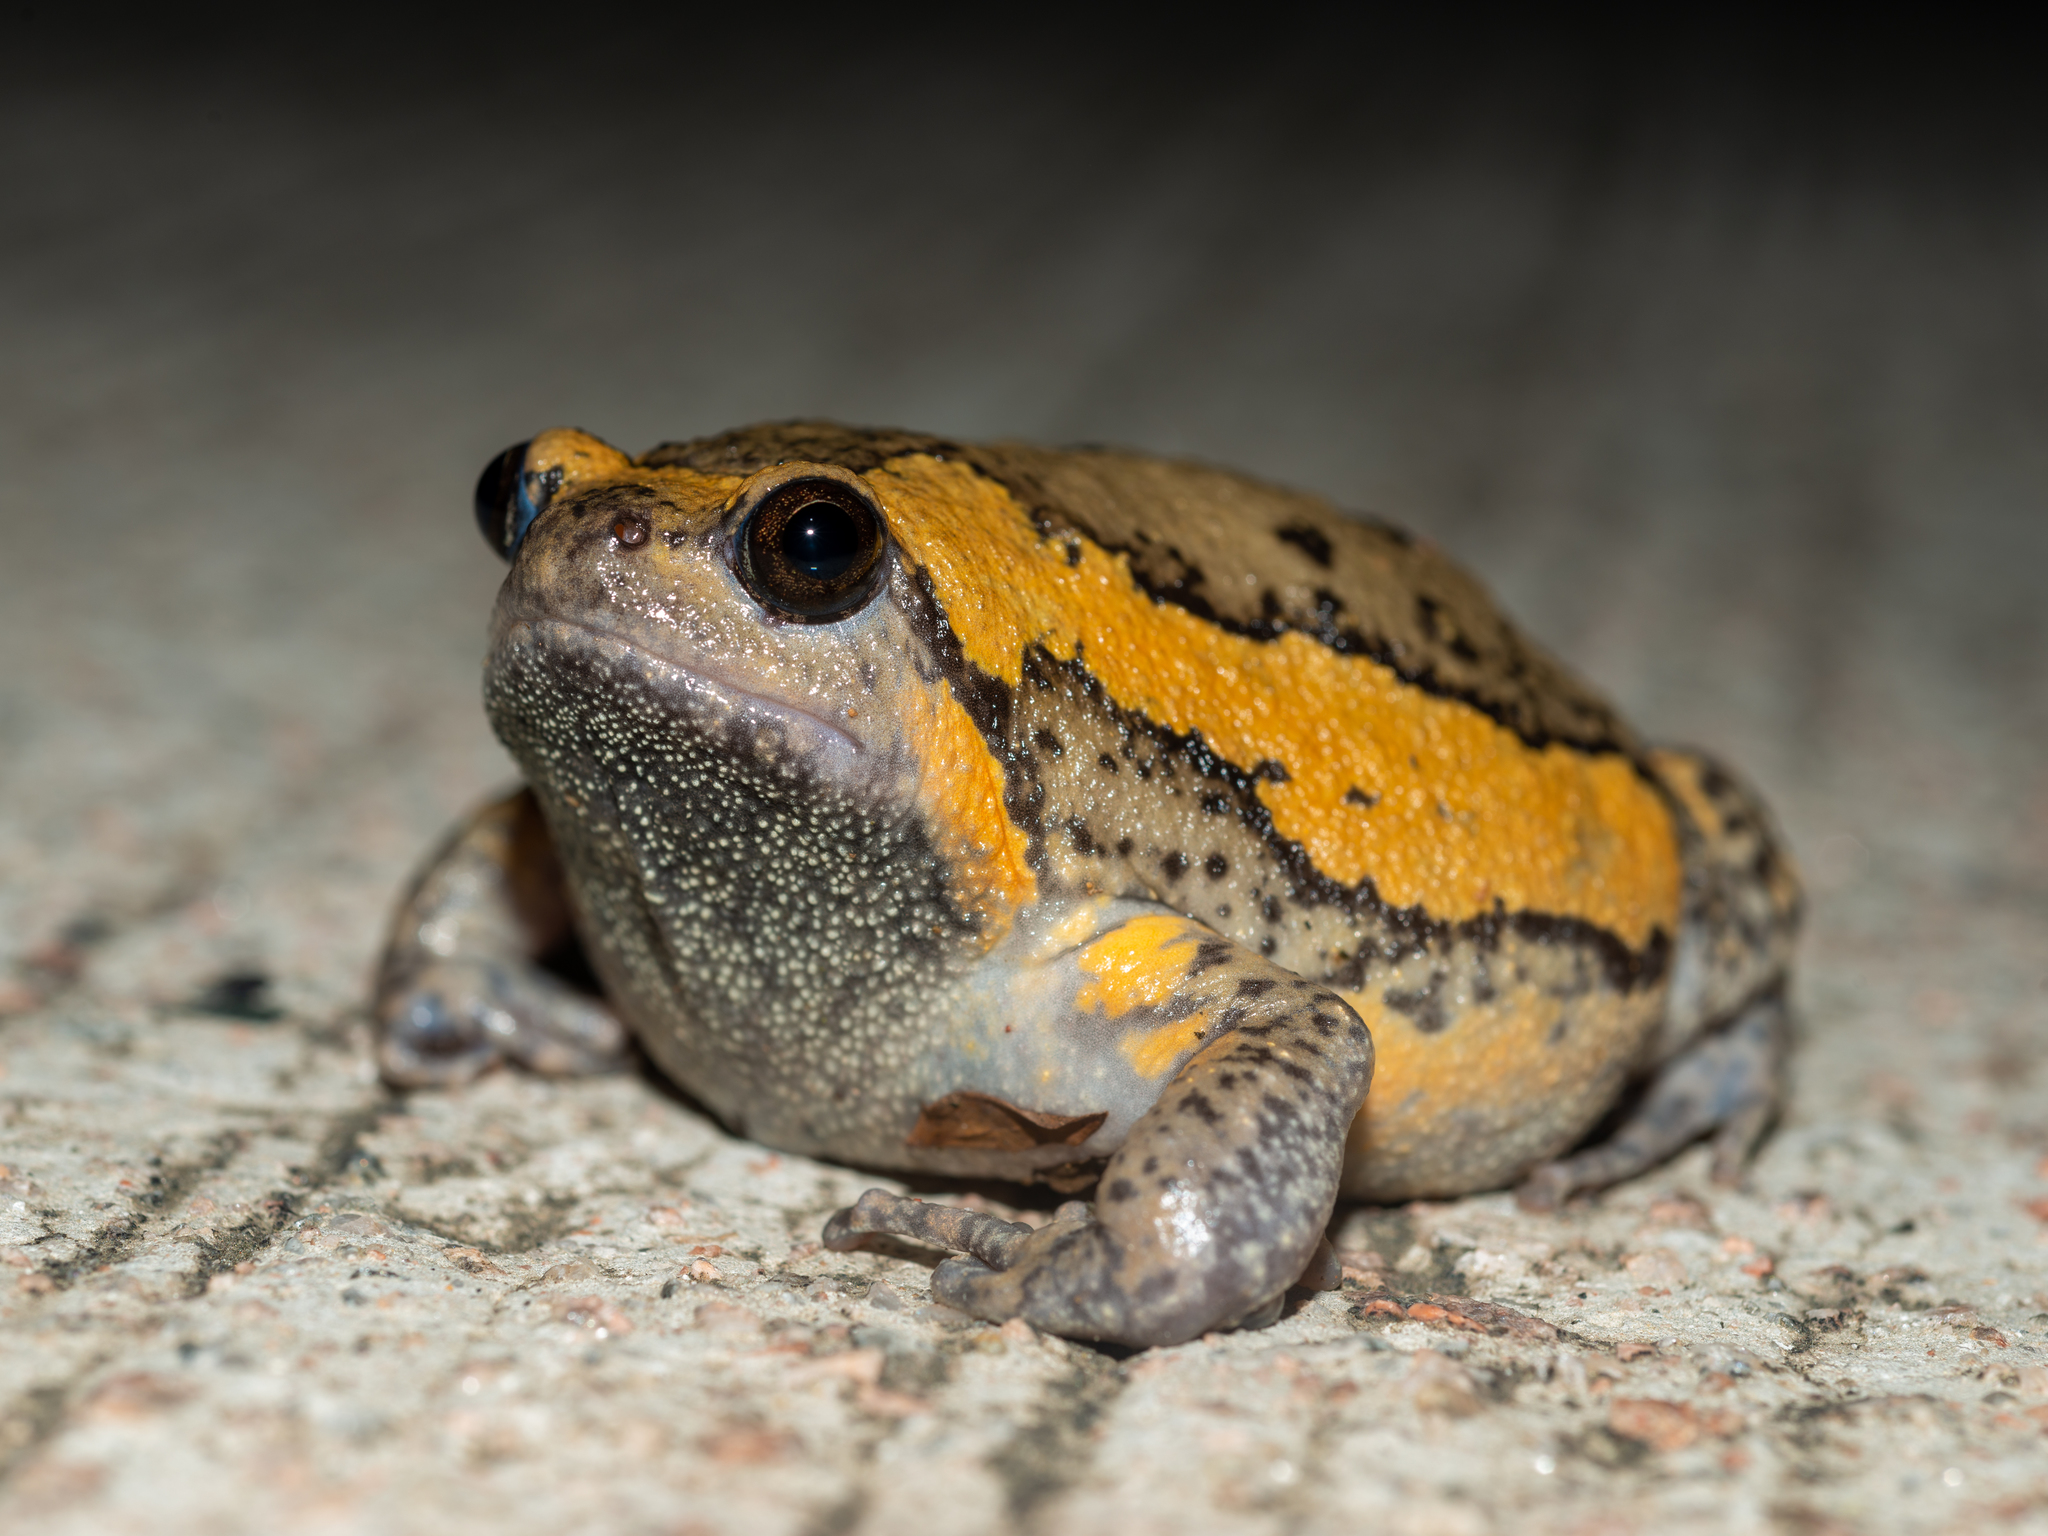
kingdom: Animalia
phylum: Chordata
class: Amphibia
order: Anura
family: Microhylidae
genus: Kaloula
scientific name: Kaloula pulchra
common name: Common,banded bullfrog
